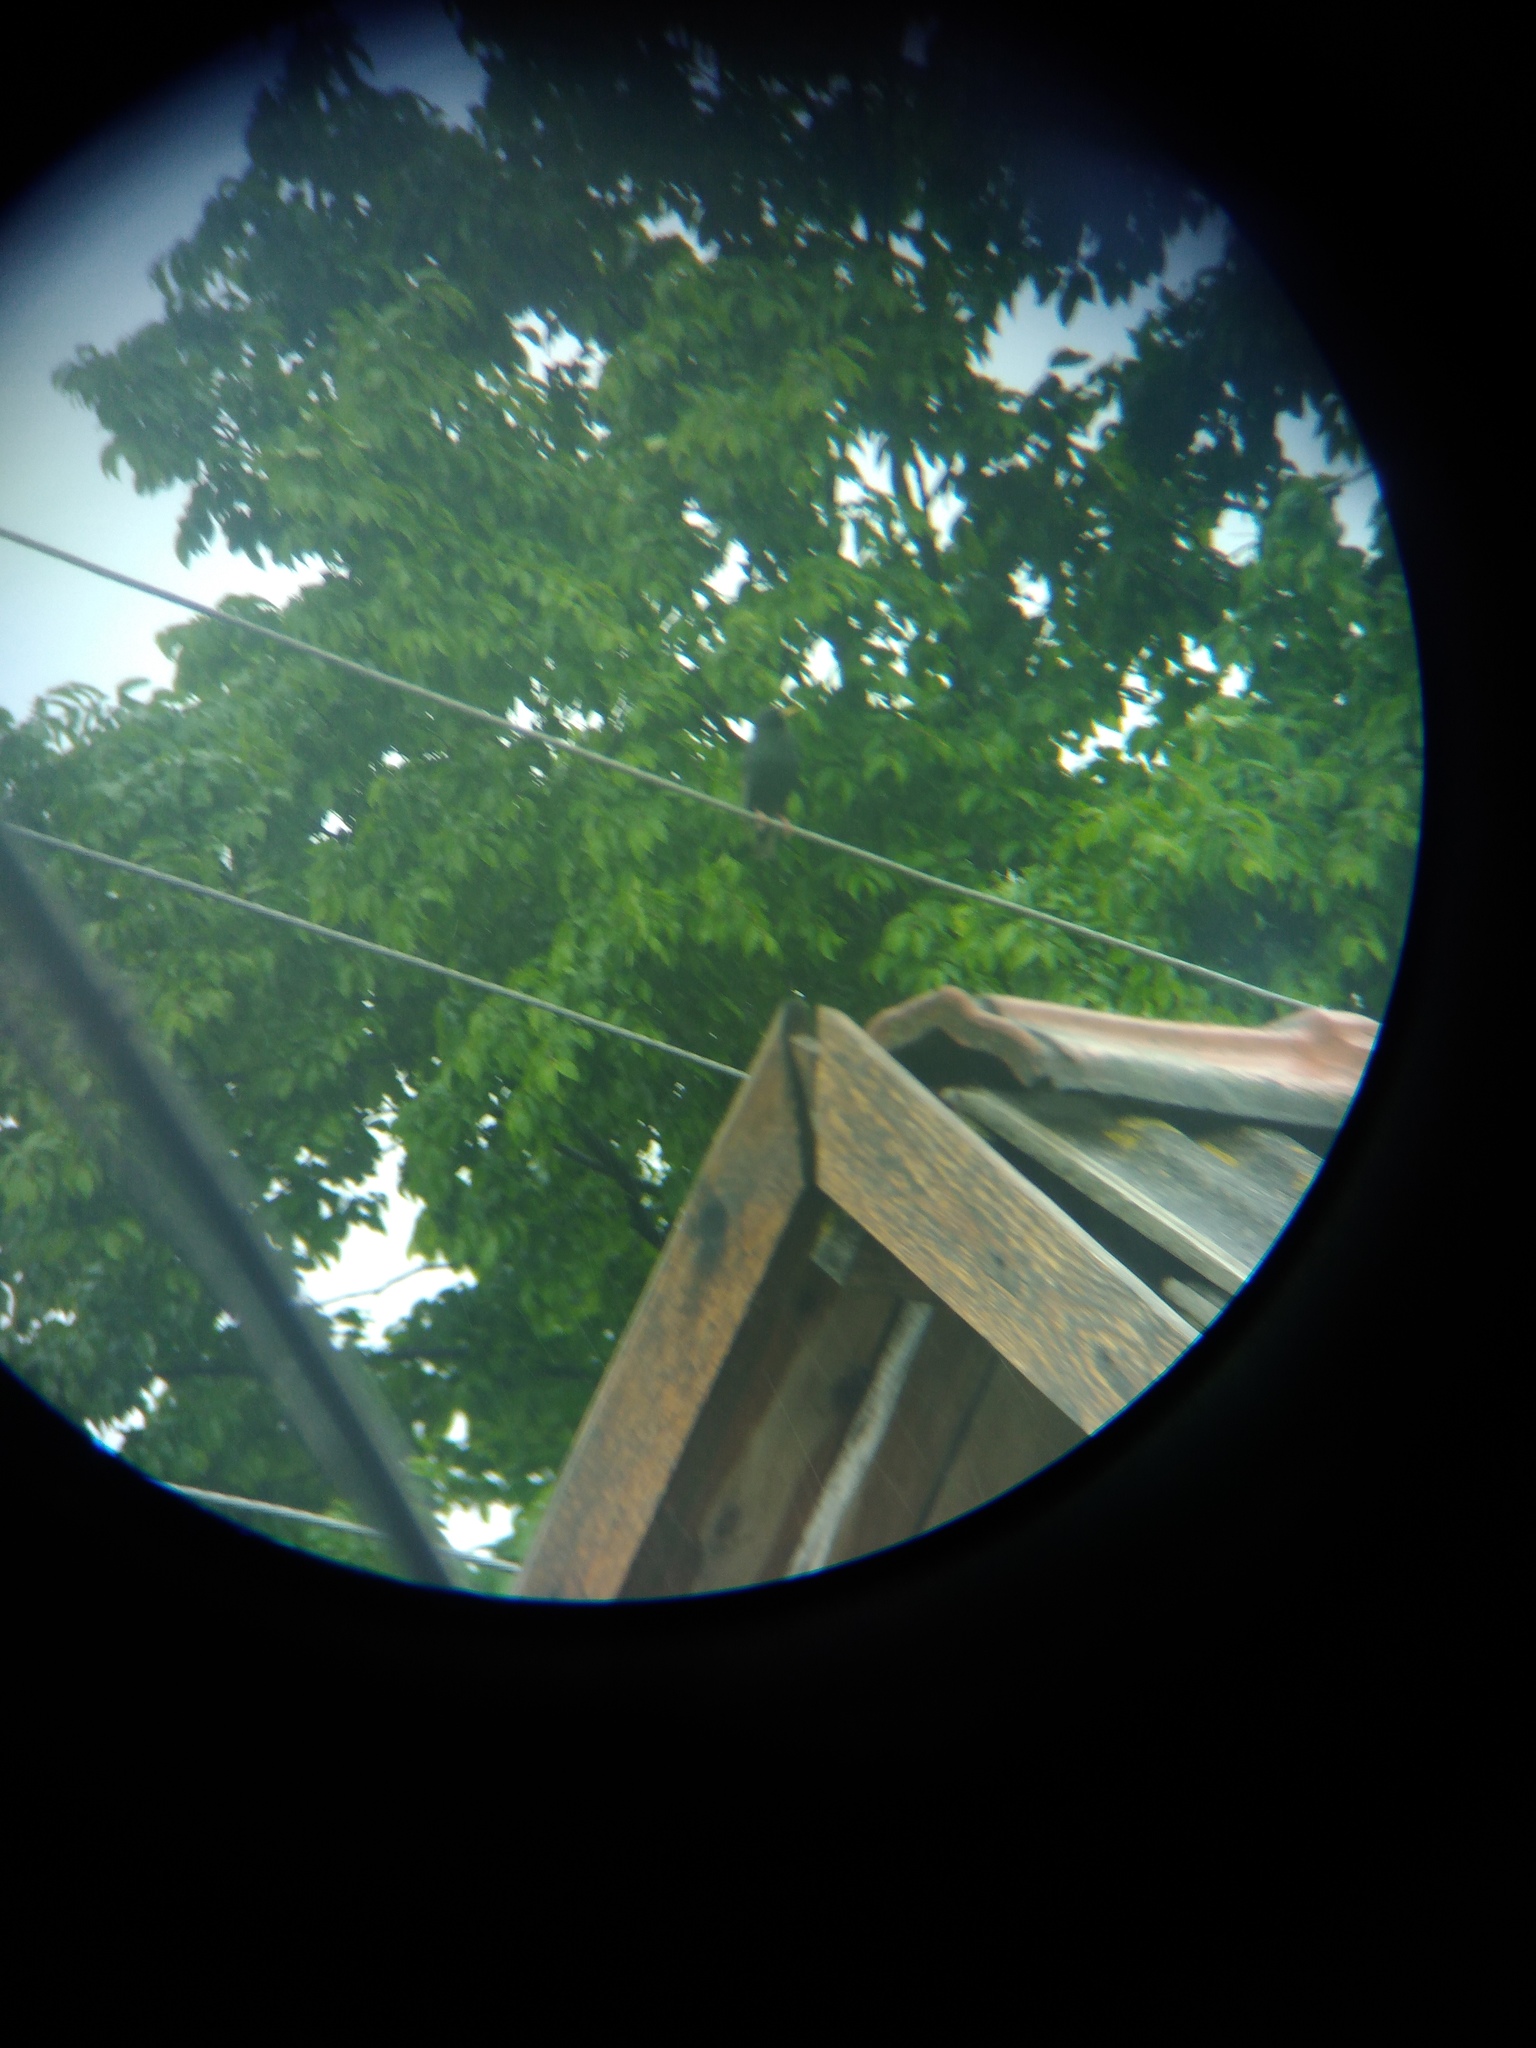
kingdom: Animalia
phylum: Chordata
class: Aves
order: Passeriformes
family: Turdidae
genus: Turdus
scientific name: Turdus merula
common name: Common blackbird
